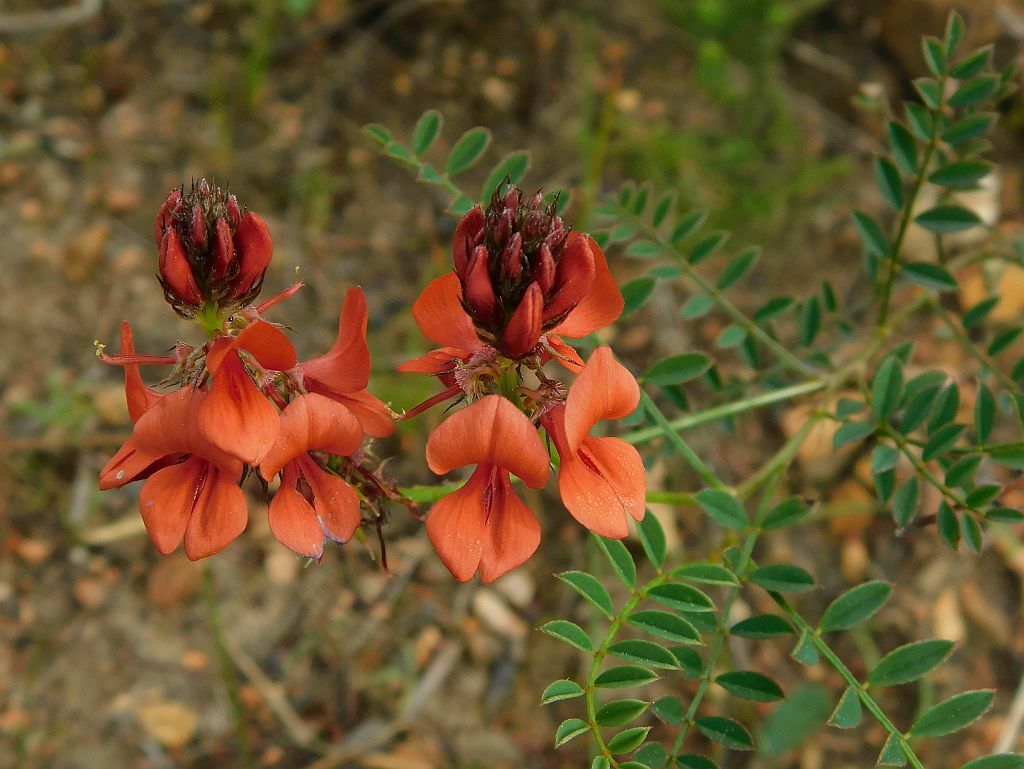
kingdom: Plantae
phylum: Tracheophyta
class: Magnoliopsida
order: Fabales
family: Fabaceae
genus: Indigofera
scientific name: Indigofera capillaris
